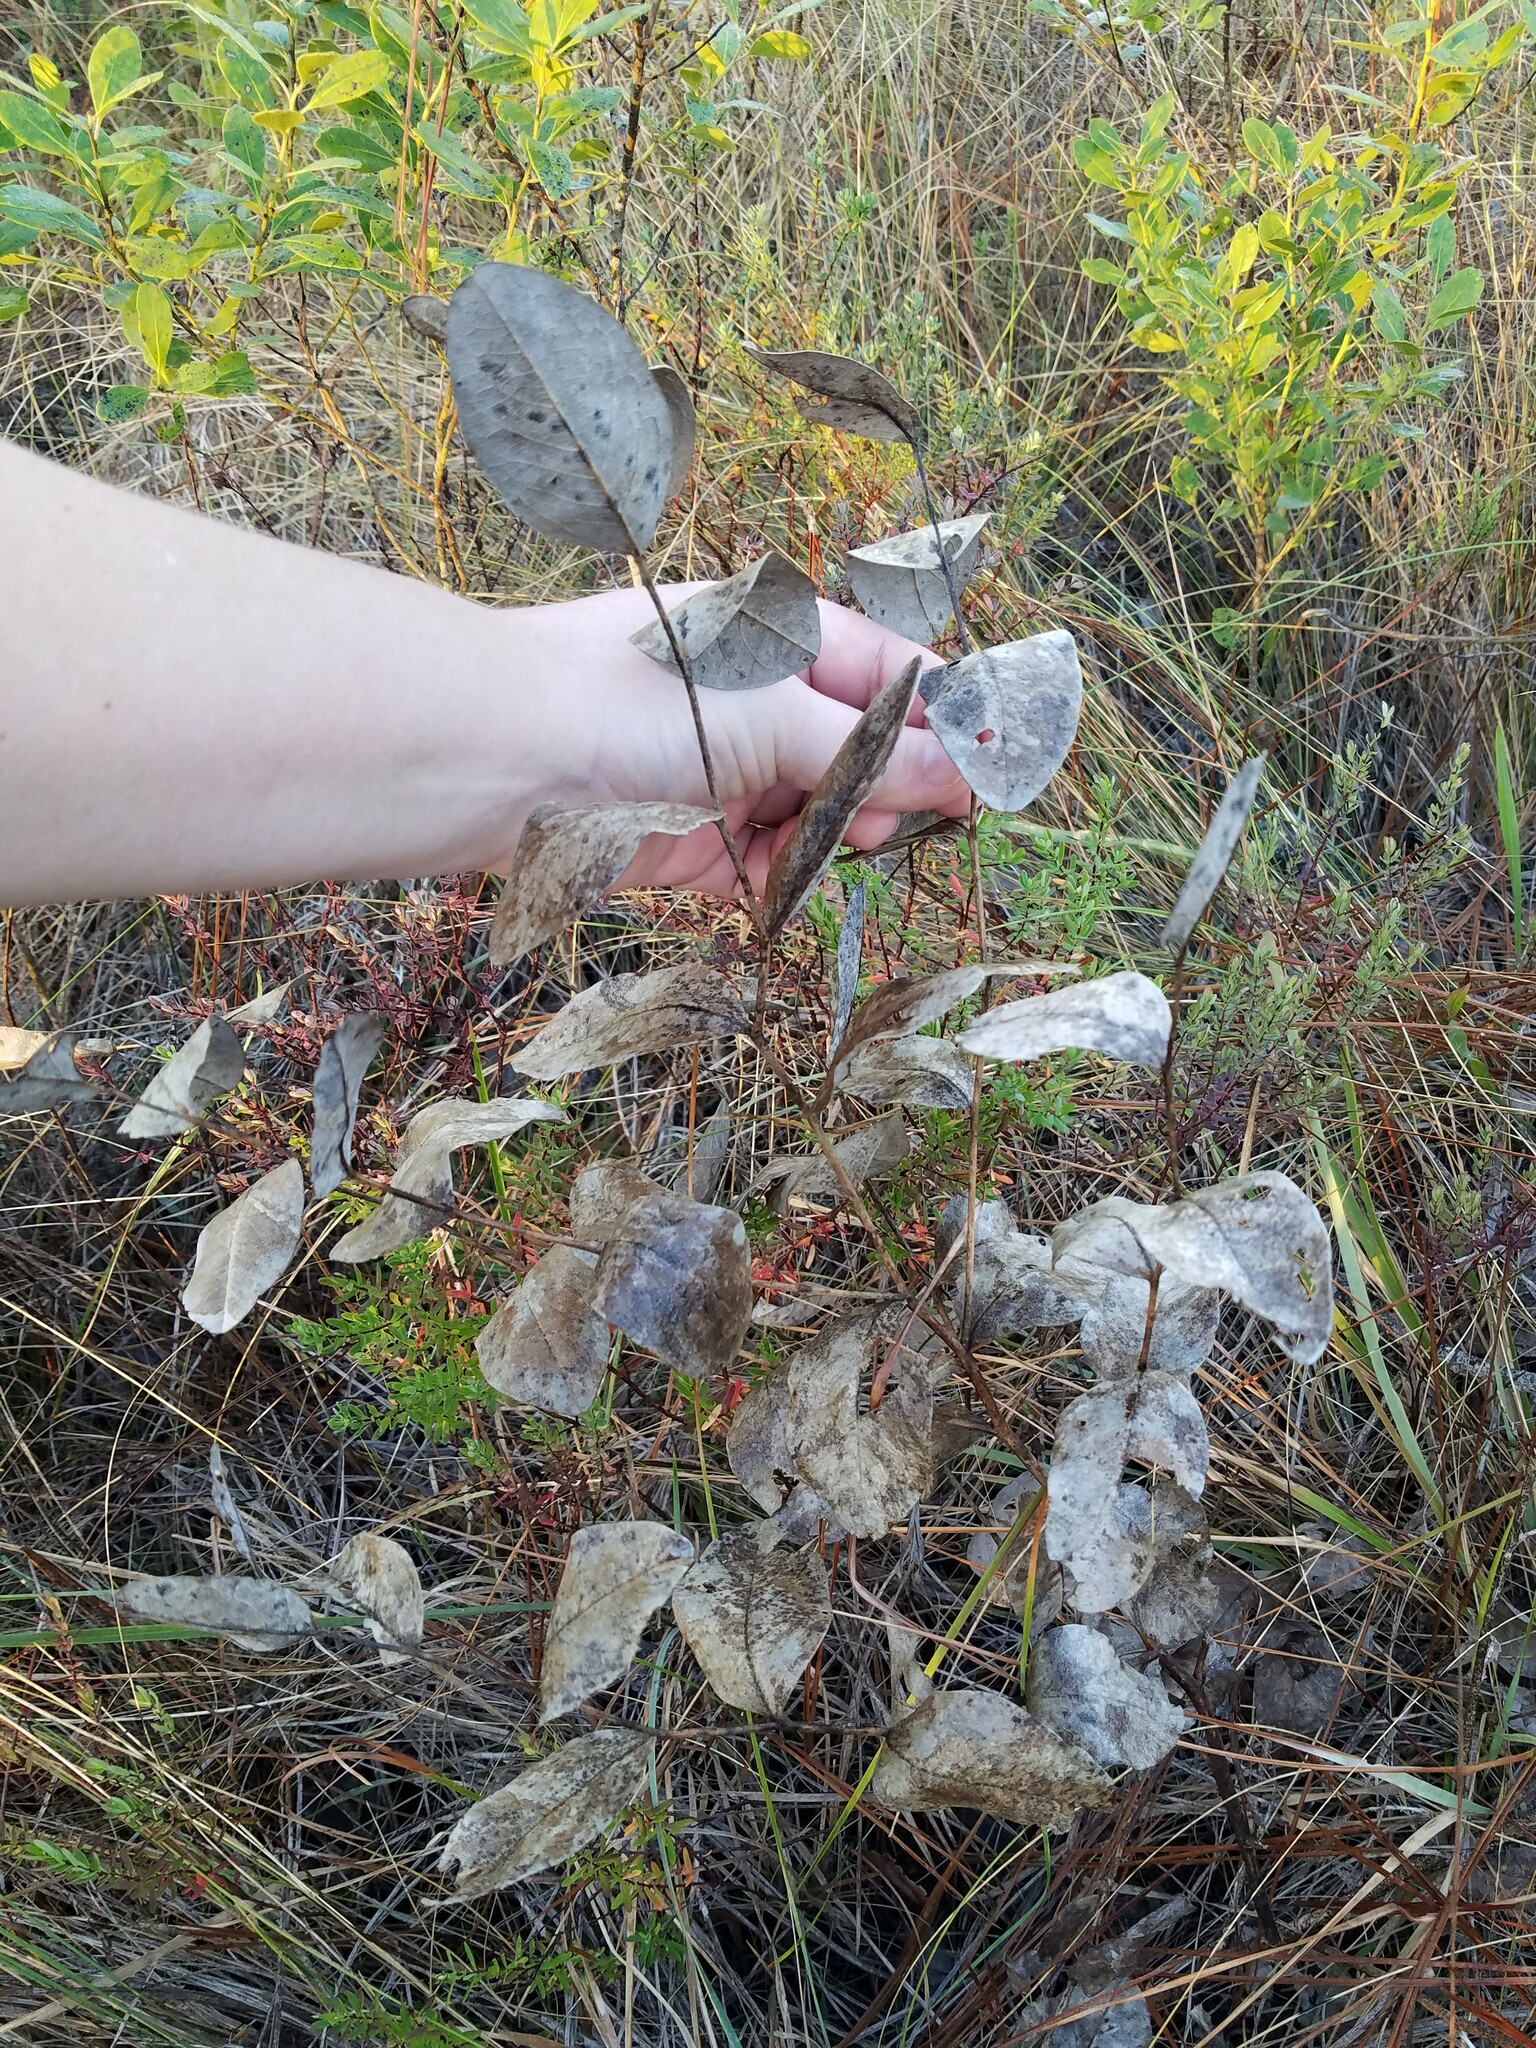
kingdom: Plantae
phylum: Tracheophyta
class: Magnoliopsida
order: Fabales
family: Fabaceae
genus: Baptisia
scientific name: Baptisia simplicifolia
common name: Scareweed
